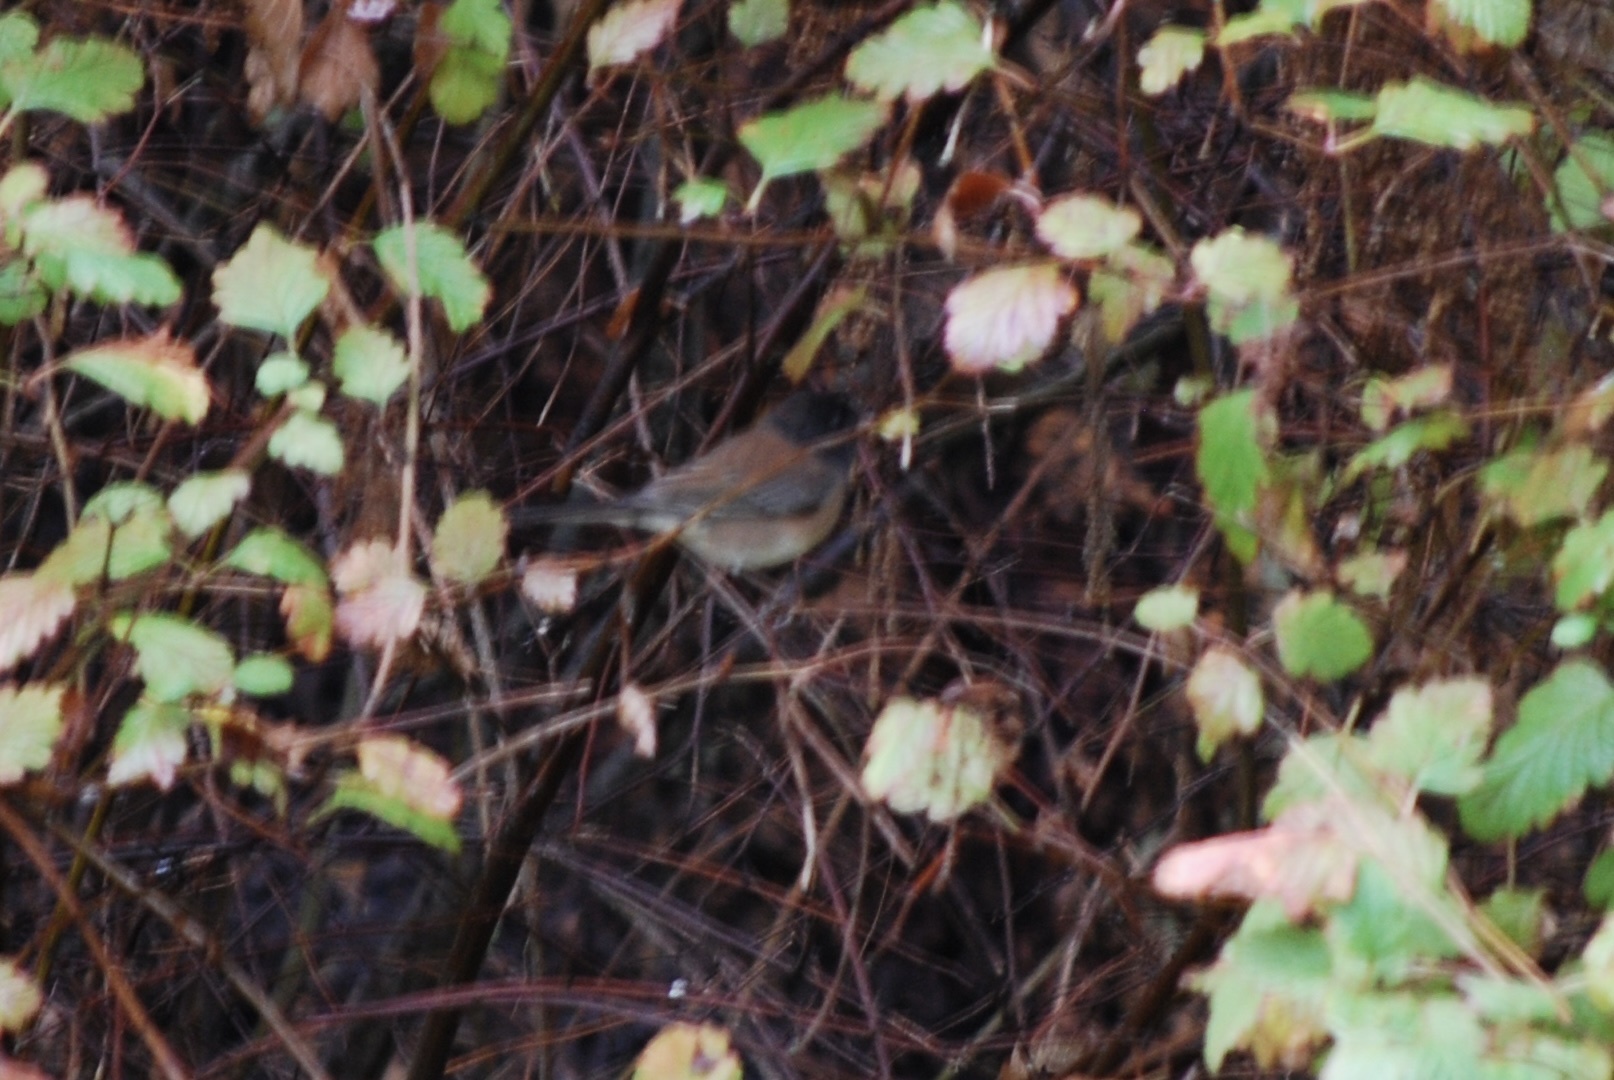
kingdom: Animalia
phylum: Chordata
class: Aves
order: Passeriformes
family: Passerellidae
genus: Junco
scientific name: Junco hyemalis
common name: Dark-eyed junco
